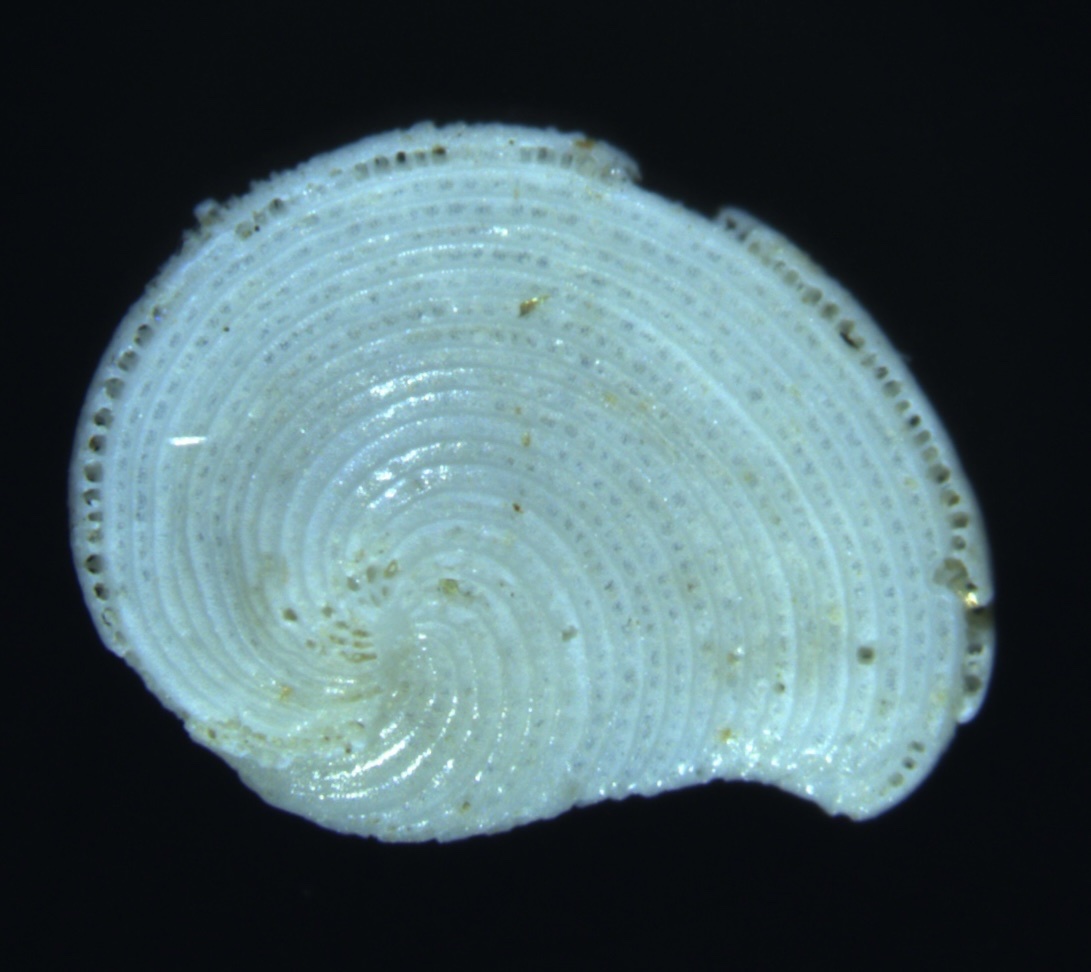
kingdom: Chromista
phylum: Foraminifera
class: Tubothalamea
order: Miliolida
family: Soritidae
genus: Archaias
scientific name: Archaias angulatus
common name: Turtle grass foram
